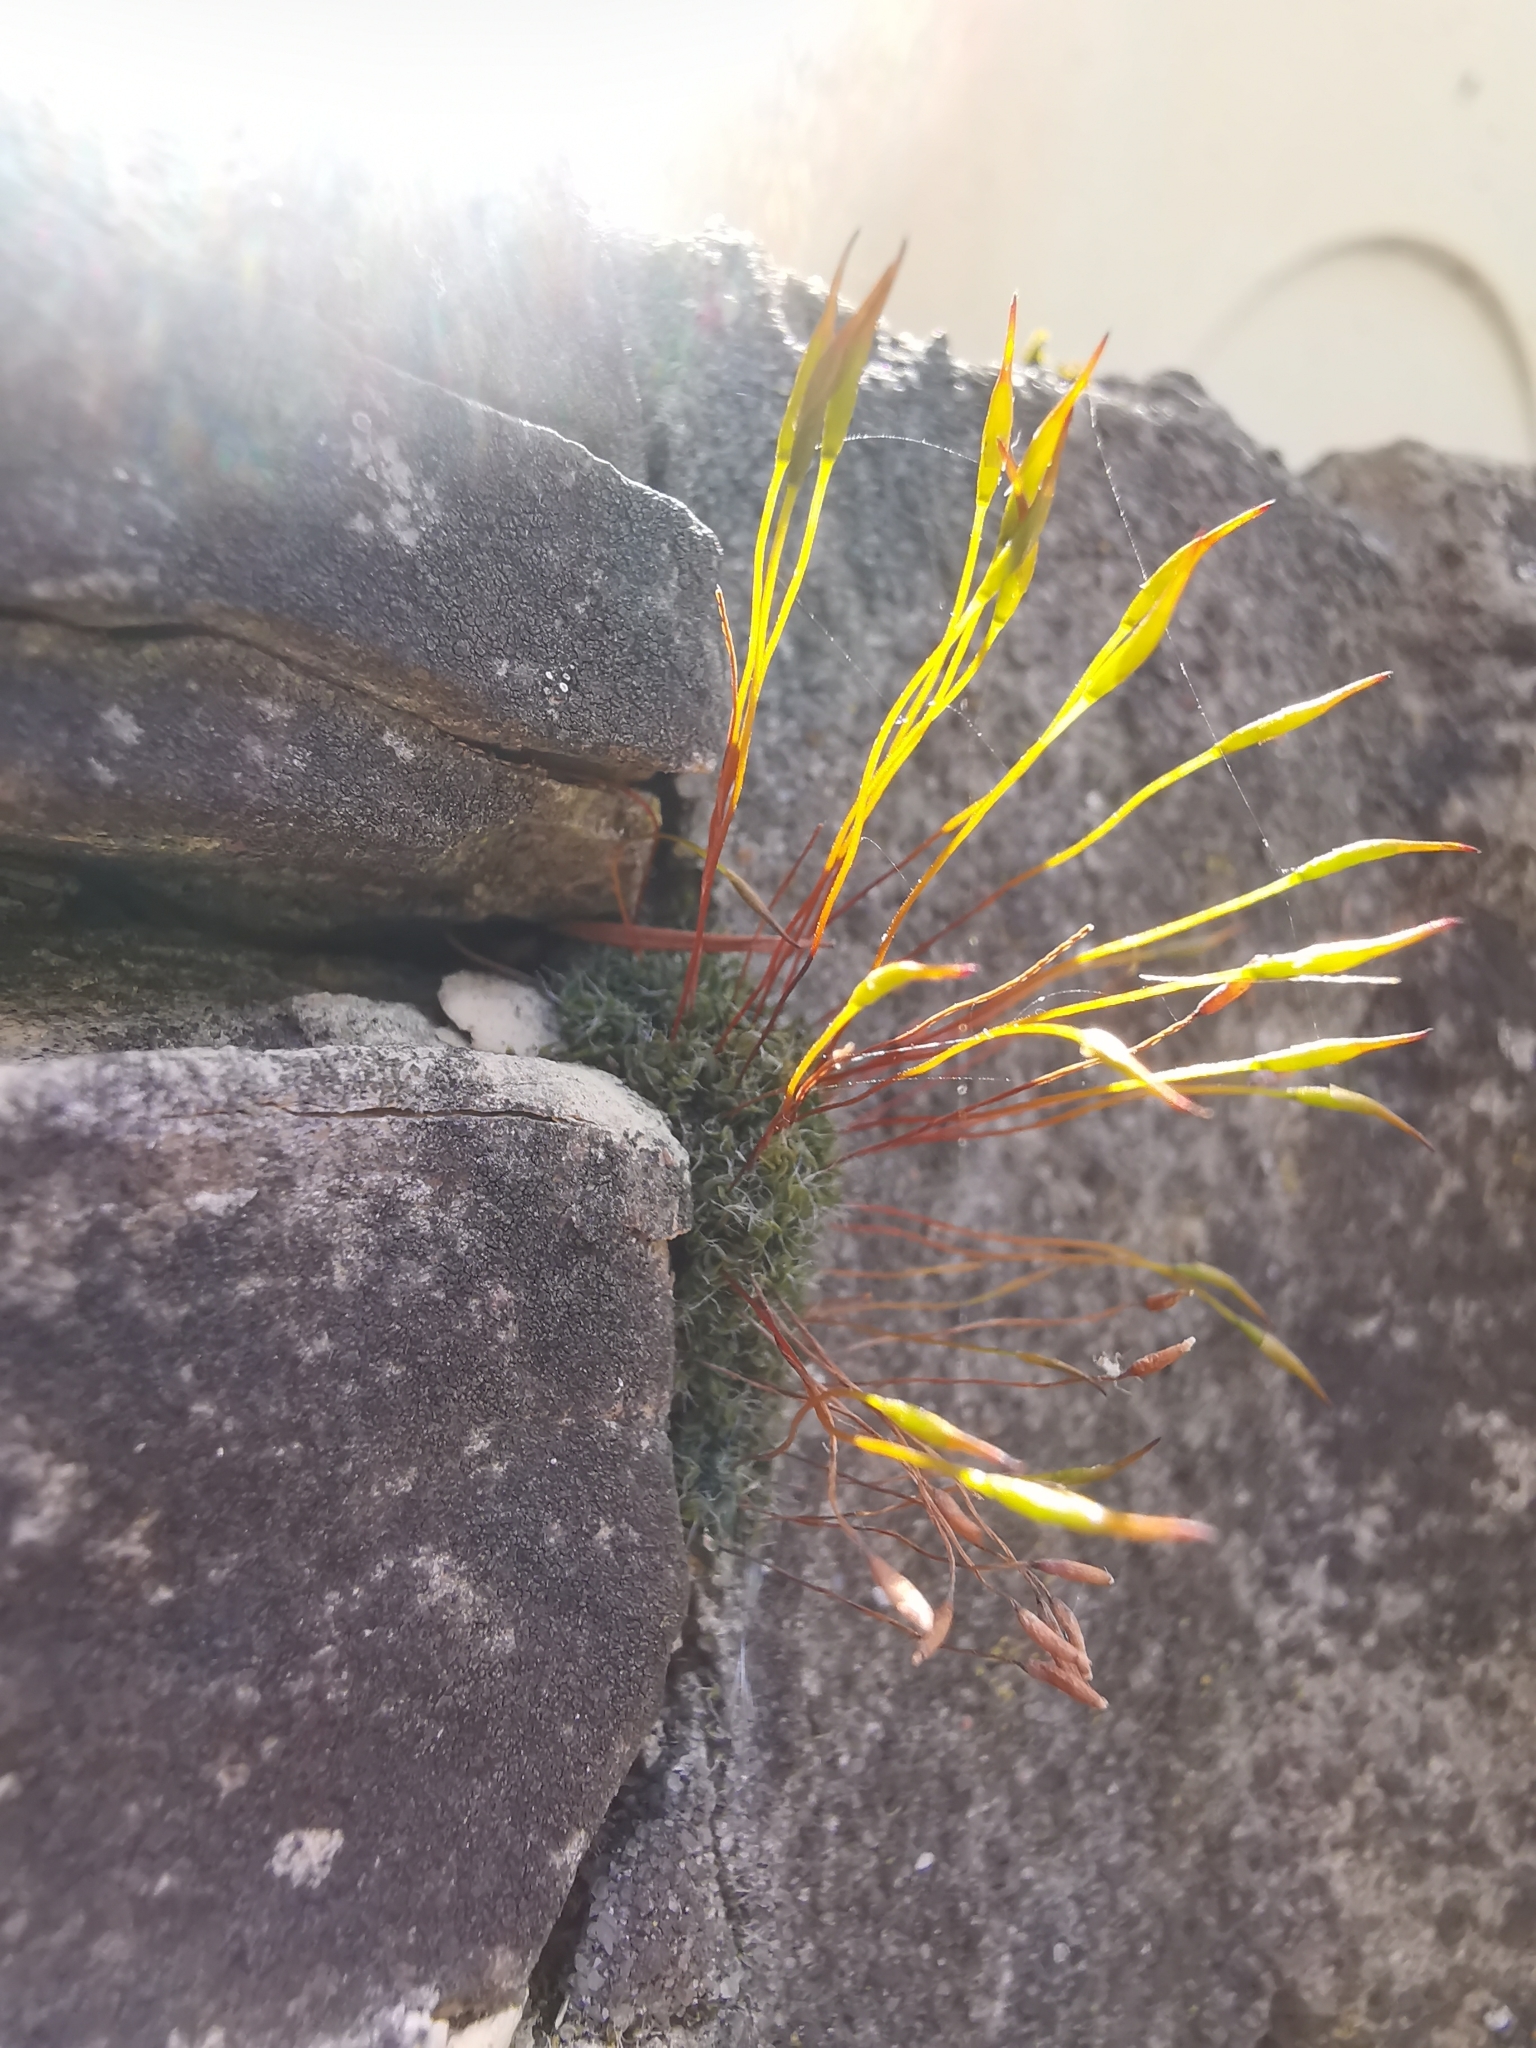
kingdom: Plantae
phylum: Bryophyta
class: Bryopsida
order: Pottiales
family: Pottiaceae
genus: Tortula
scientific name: Tortula muralis
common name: Wall screw-moss
